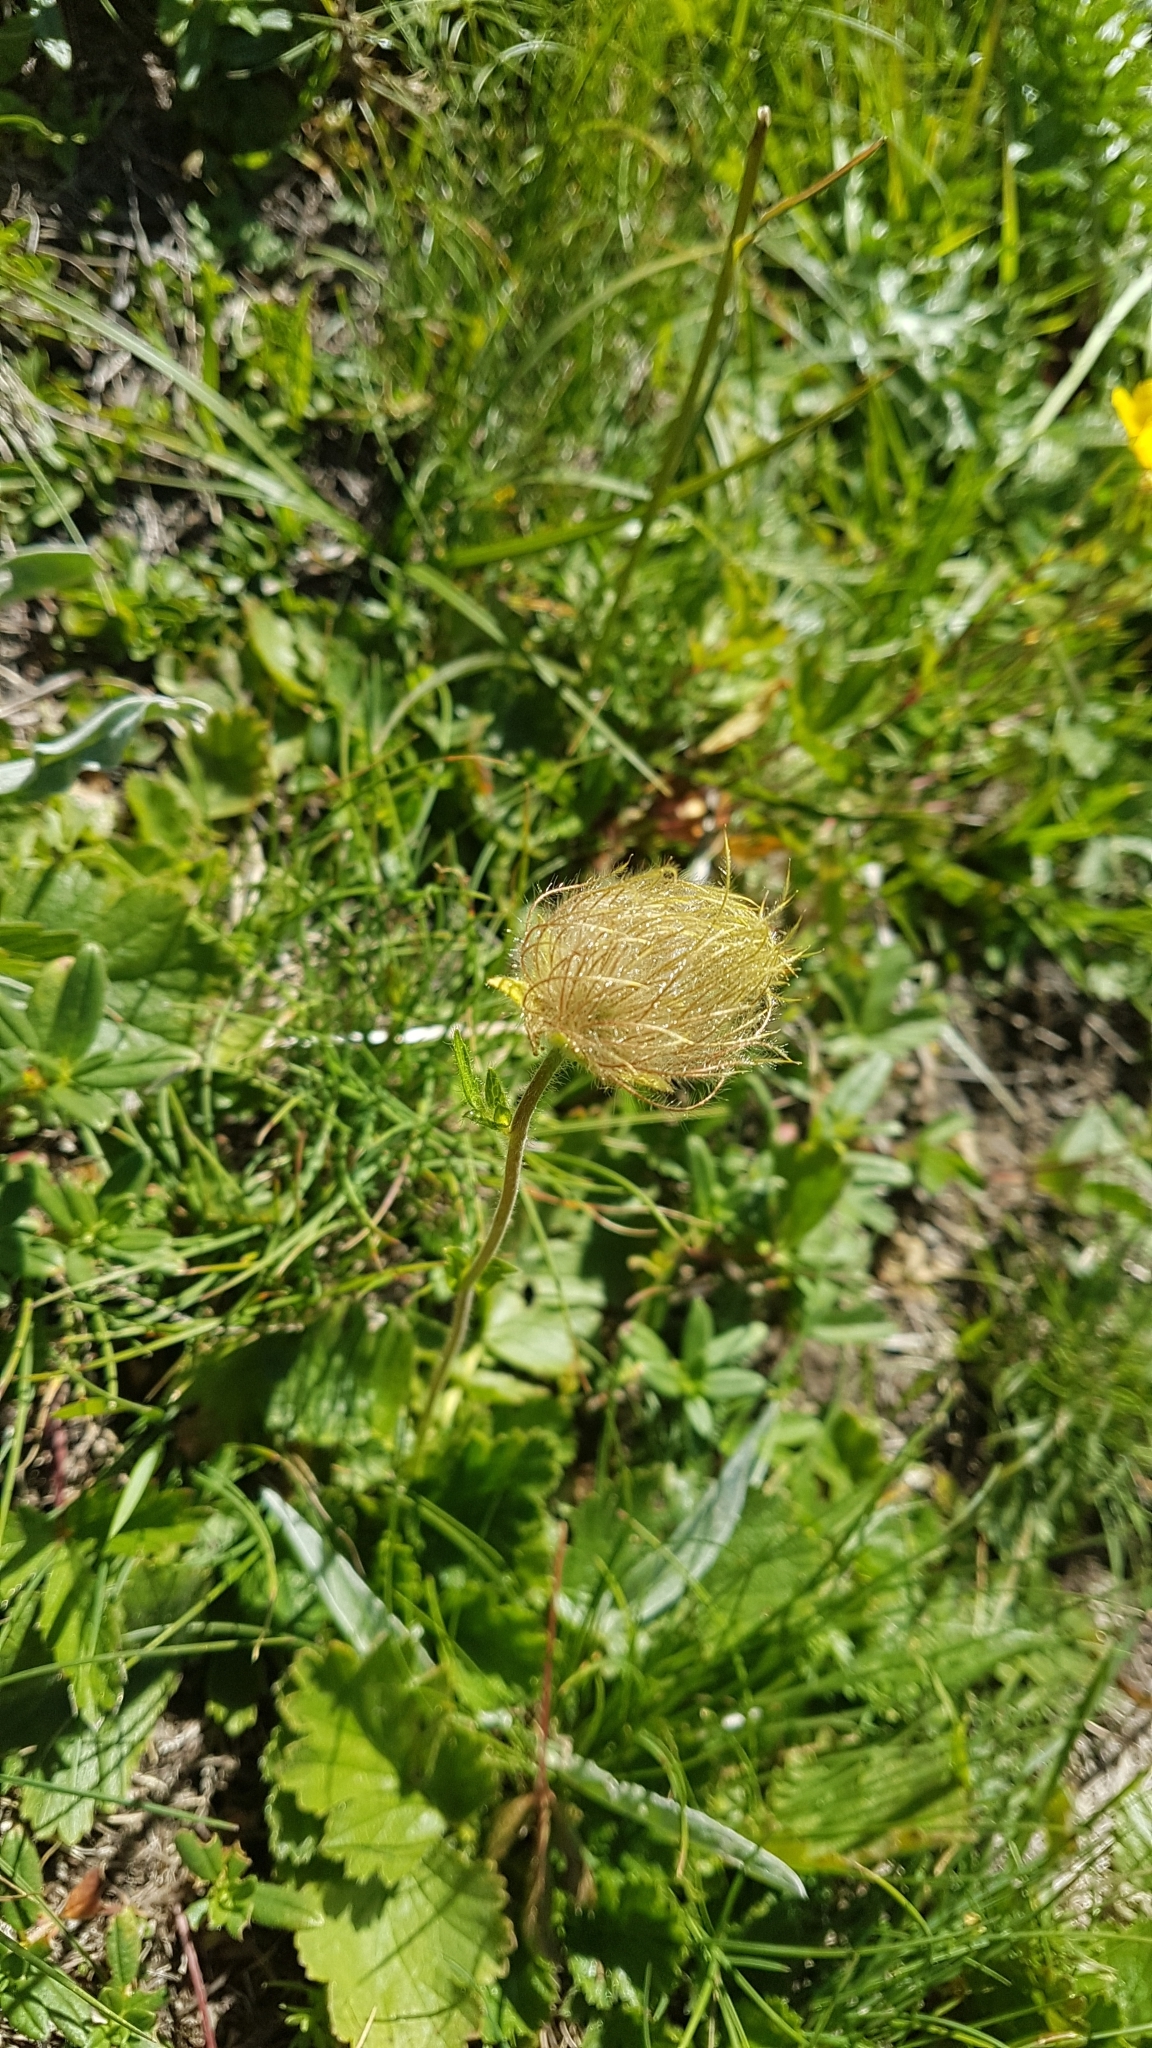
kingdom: Plantae
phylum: Tracheophyta
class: Magnoliopsida
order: Rosales
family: Rosaceae
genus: Geum
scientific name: Geum montanum
